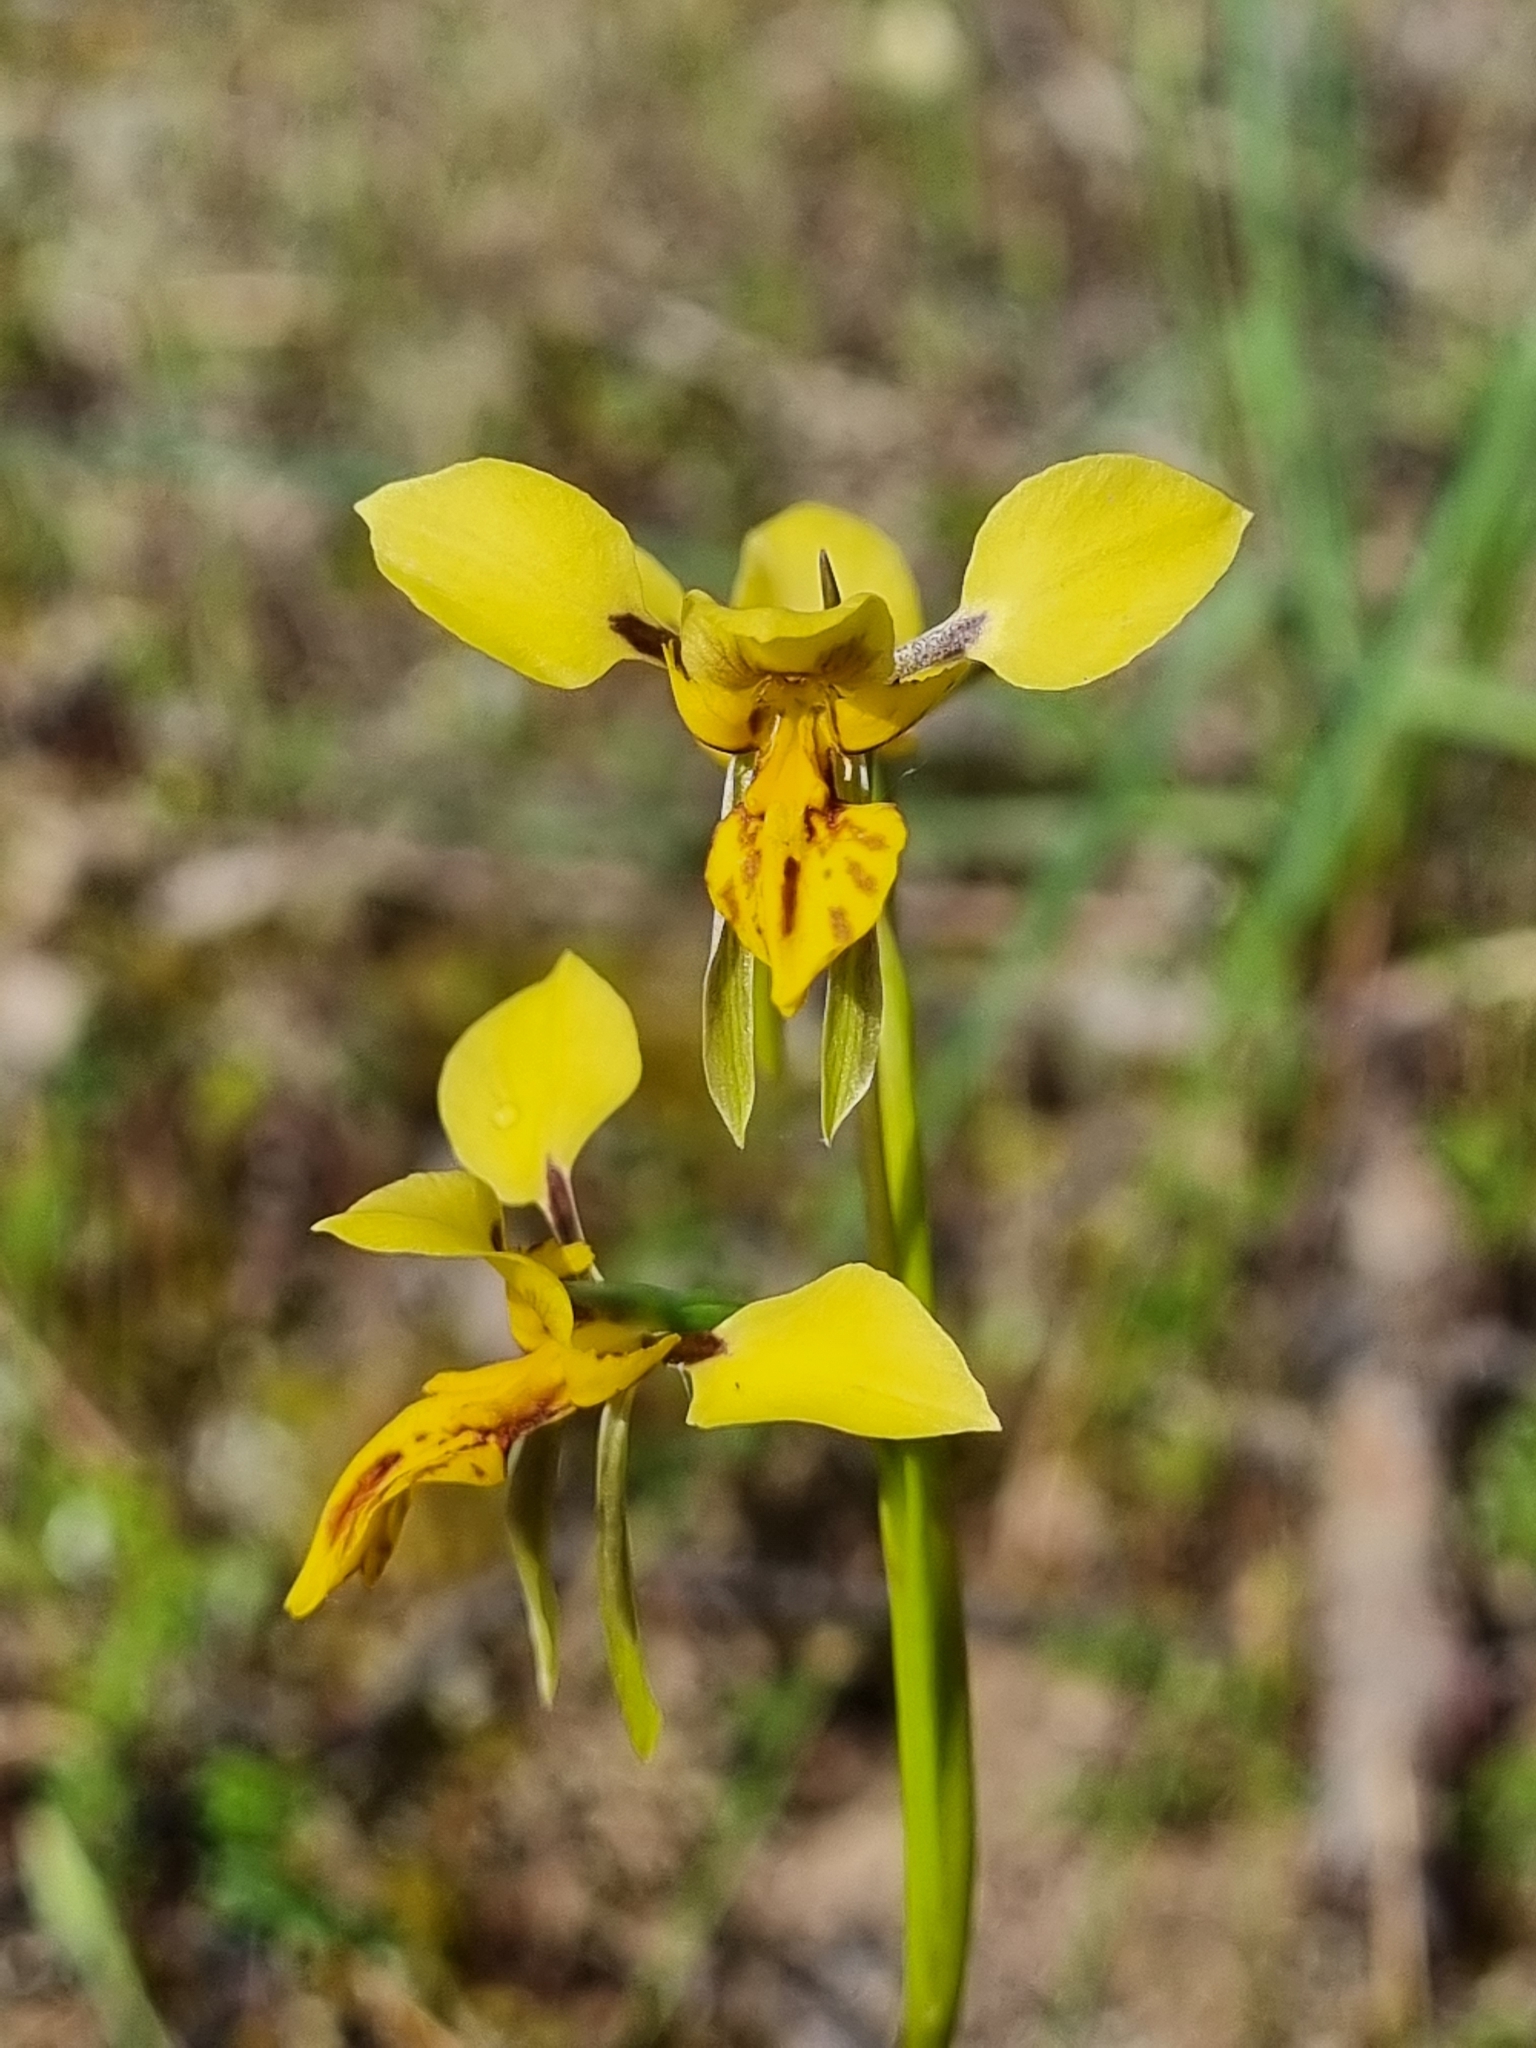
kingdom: Plantae
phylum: Tracheophyta
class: Liliopsida
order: Asparagales
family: Orchidaceae
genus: Diuris
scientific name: Diuris palachila
